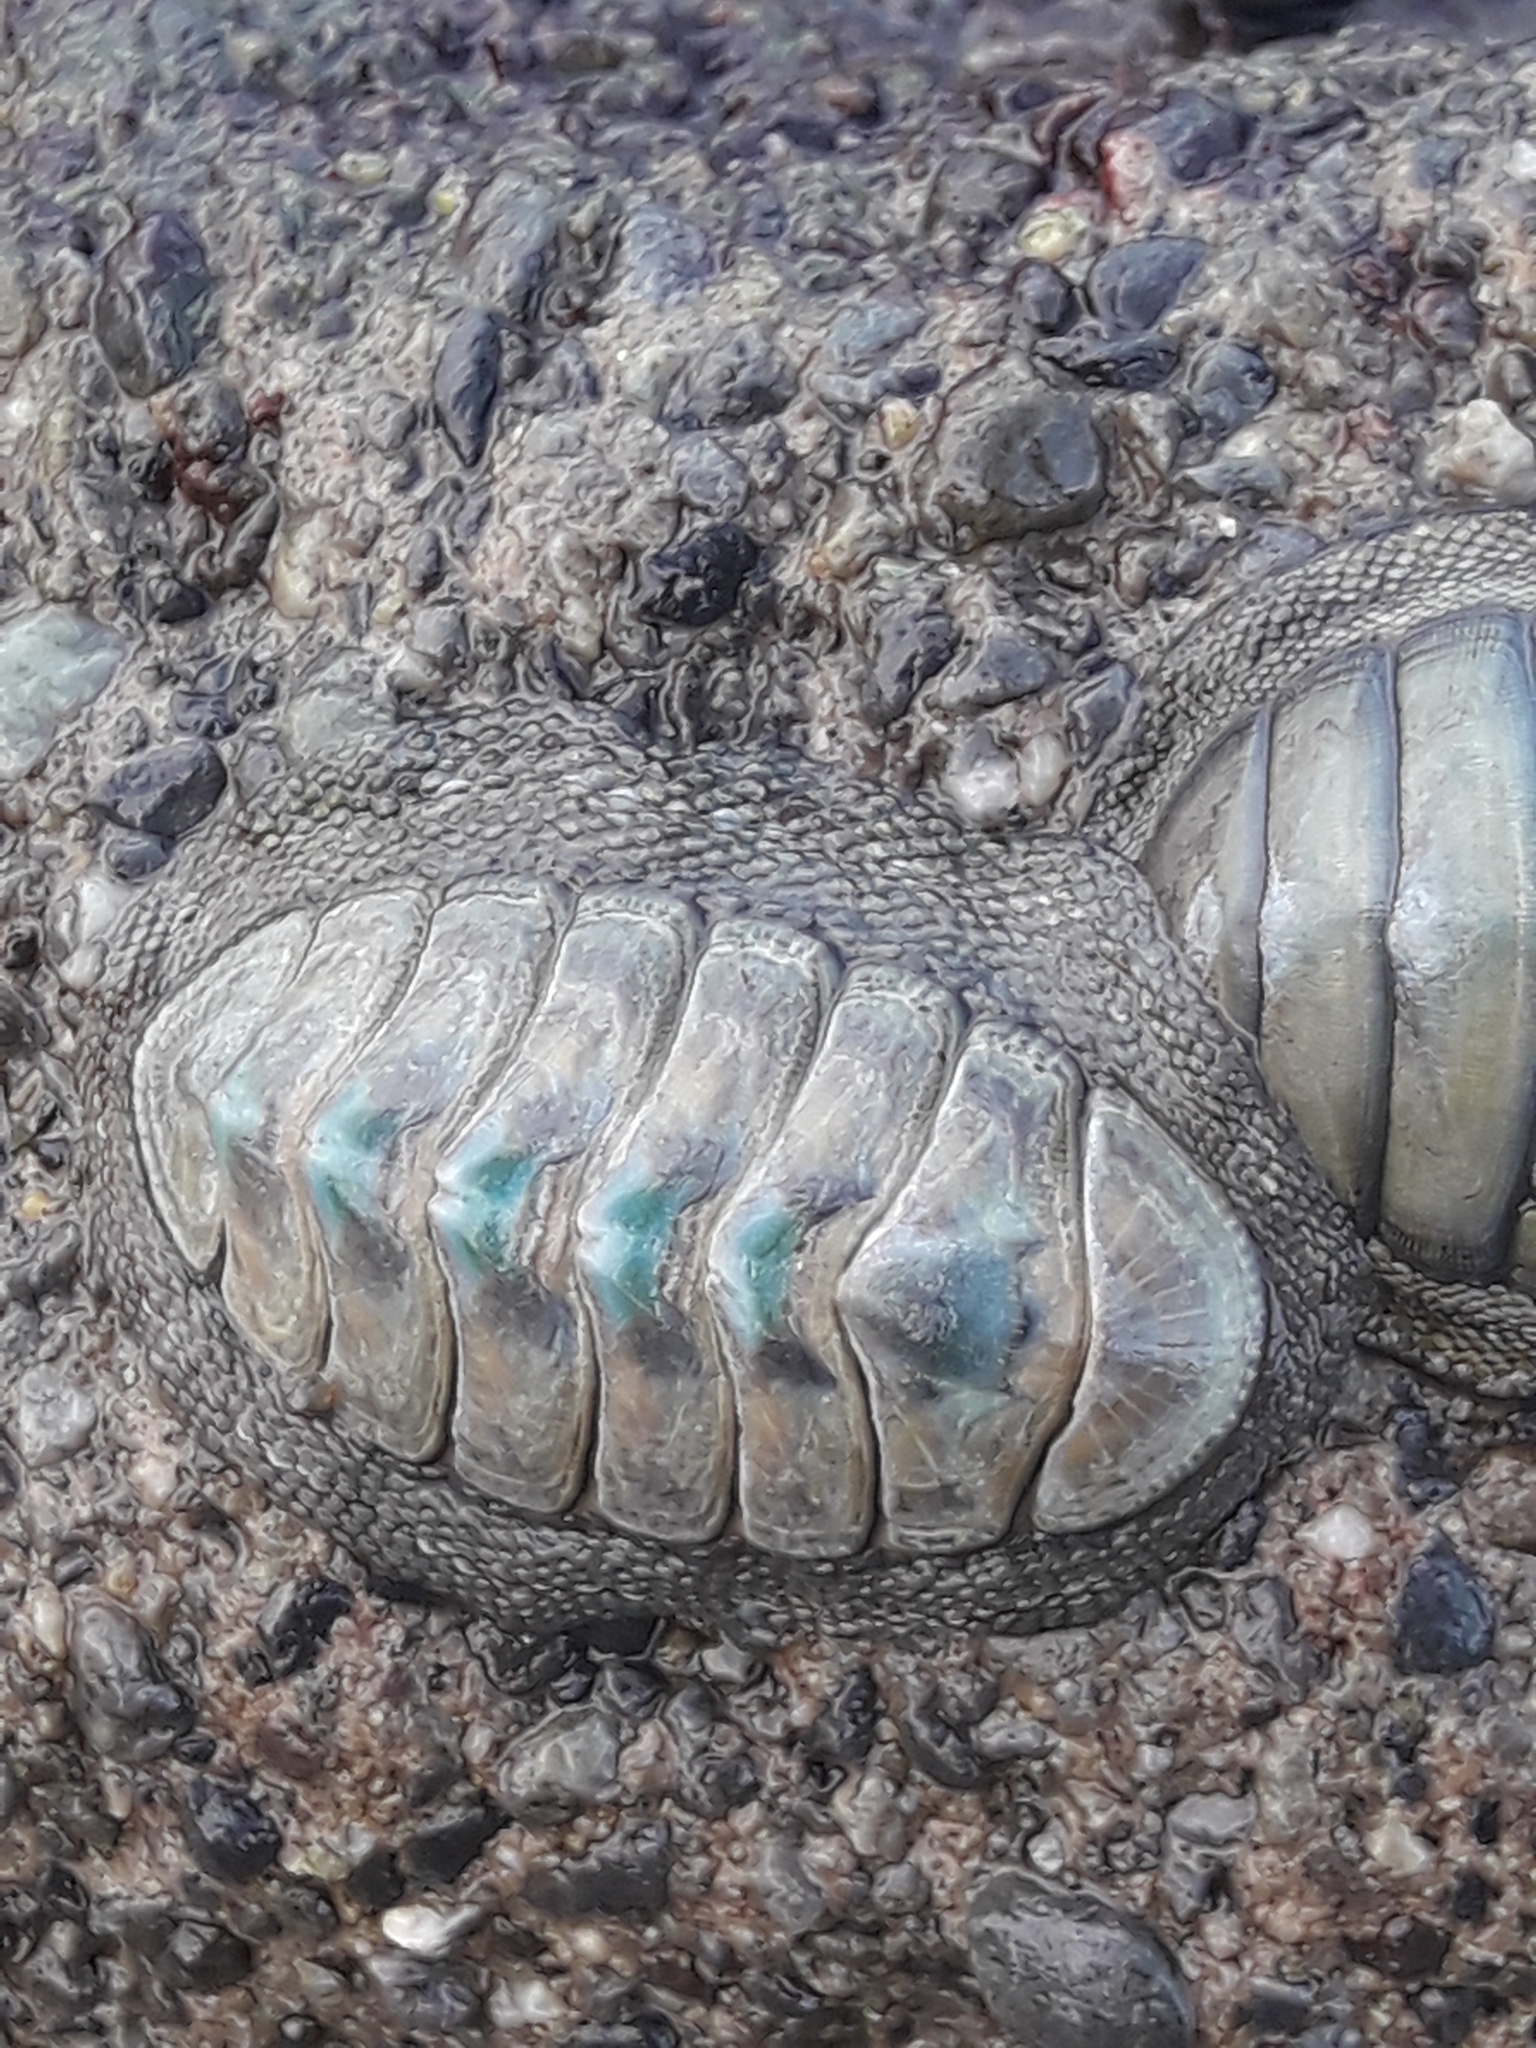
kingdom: Animalia
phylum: Mollusca
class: Polyplacophora
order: Chitonida
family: Chitonidae
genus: Chiton
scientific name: Chiton glaucus
